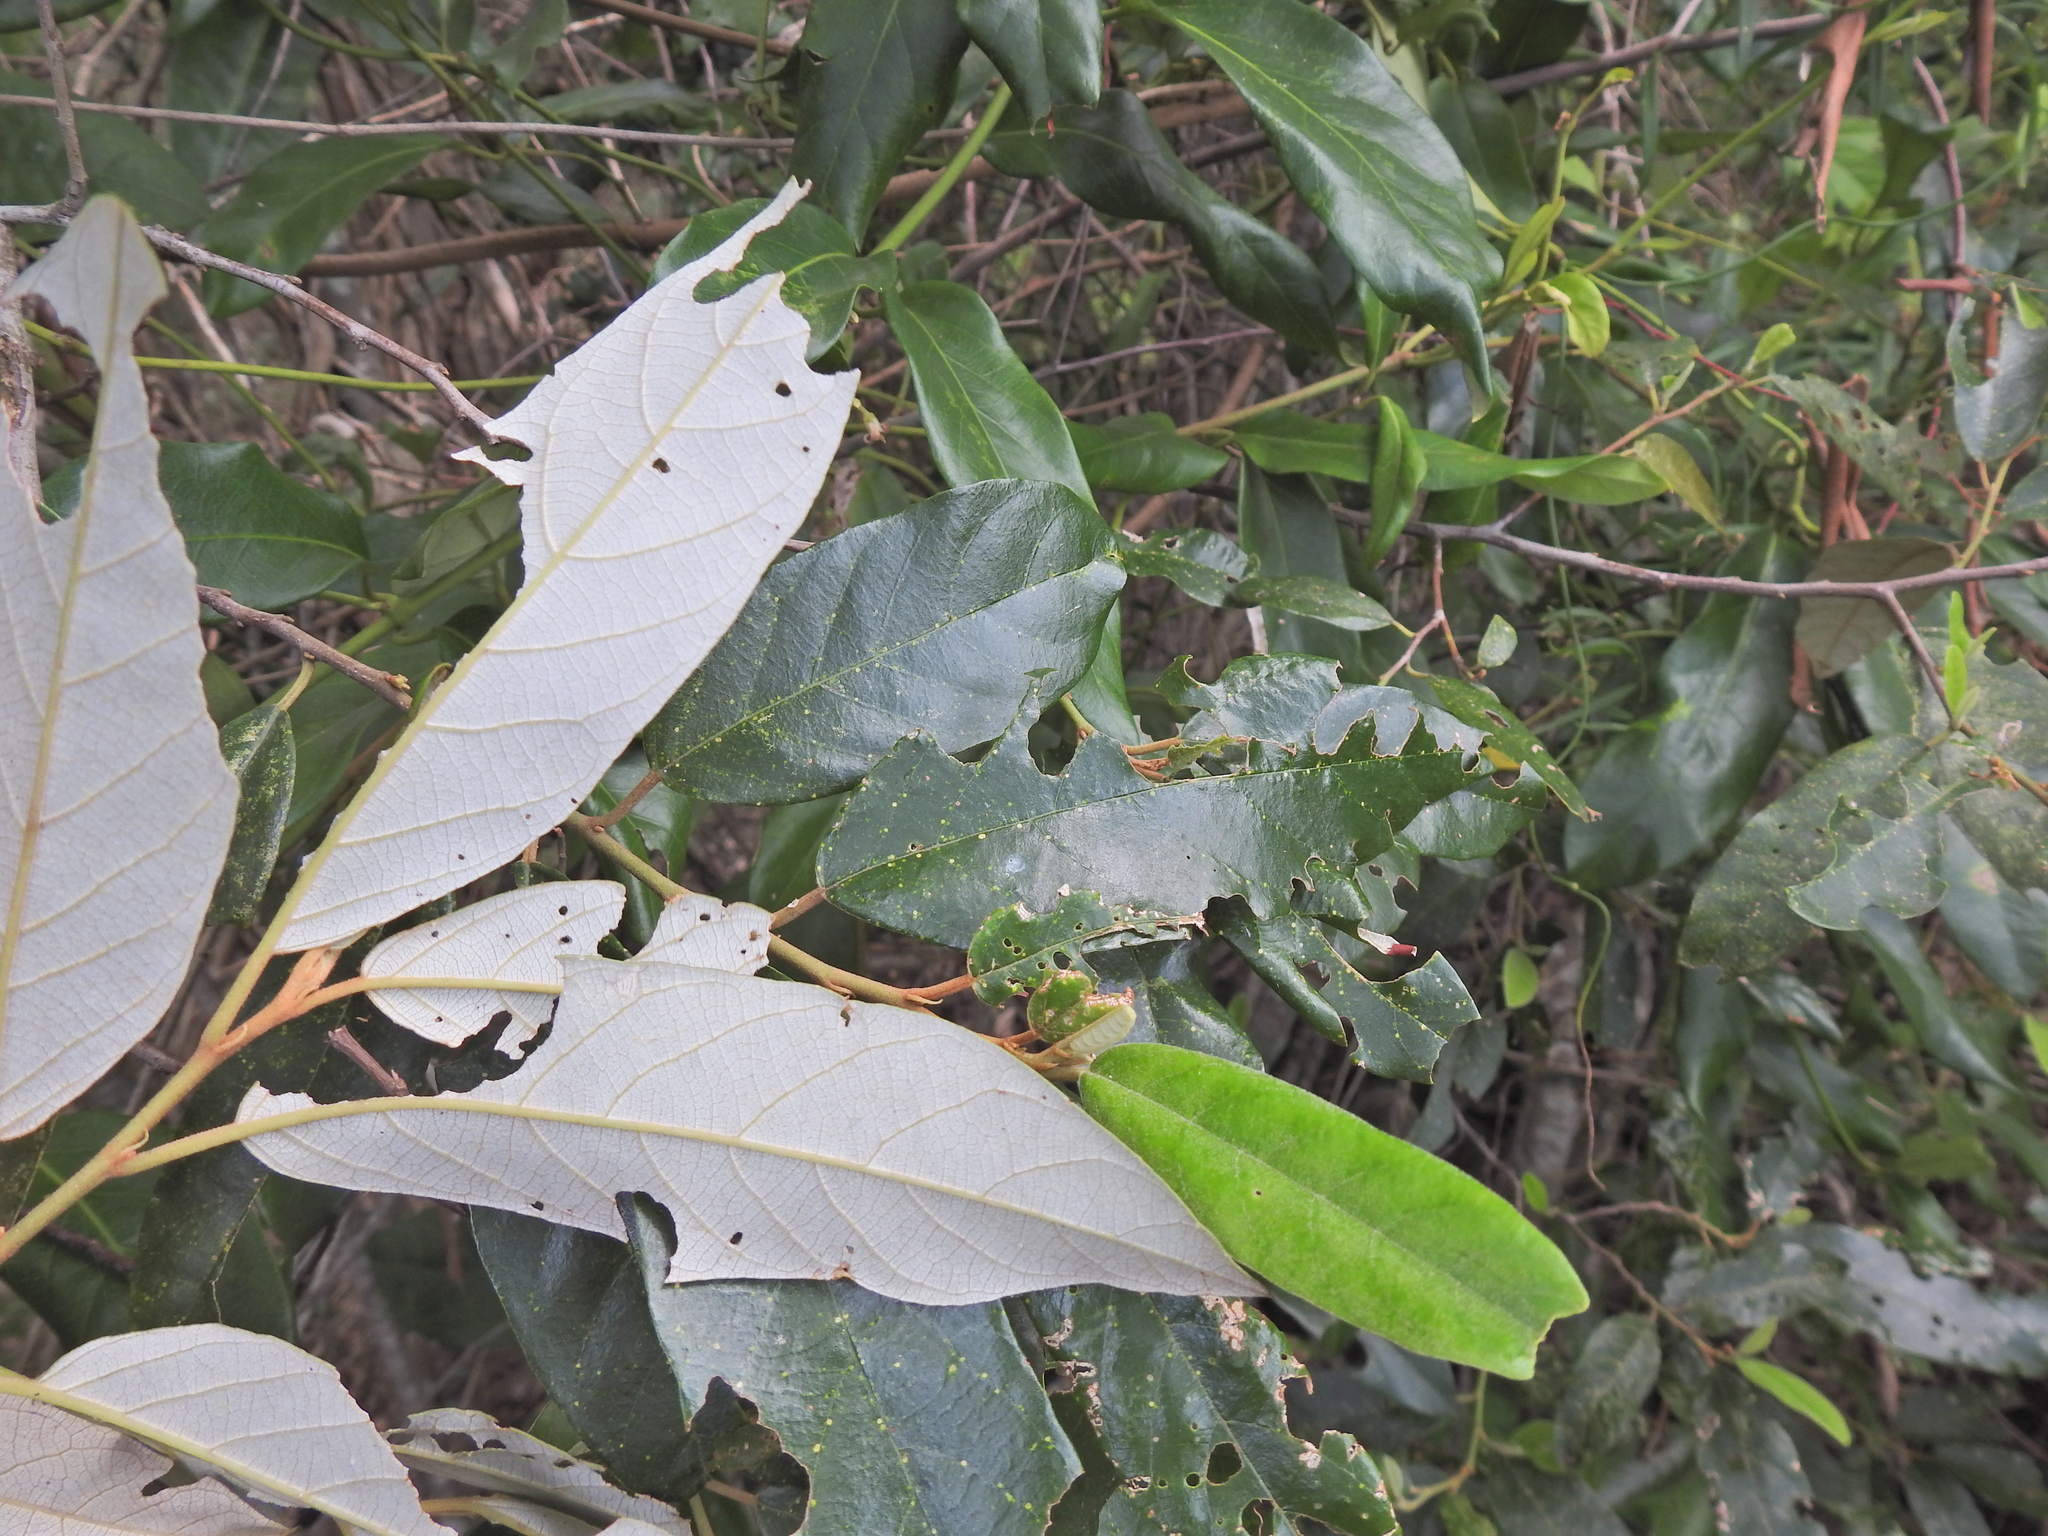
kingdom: Plantae
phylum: Tracheophyta
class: Magnoliopsida
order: Rosales
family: Rhamnaceae
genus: Alphitonia
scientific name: Alphitonia excelsa
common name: Red ash
